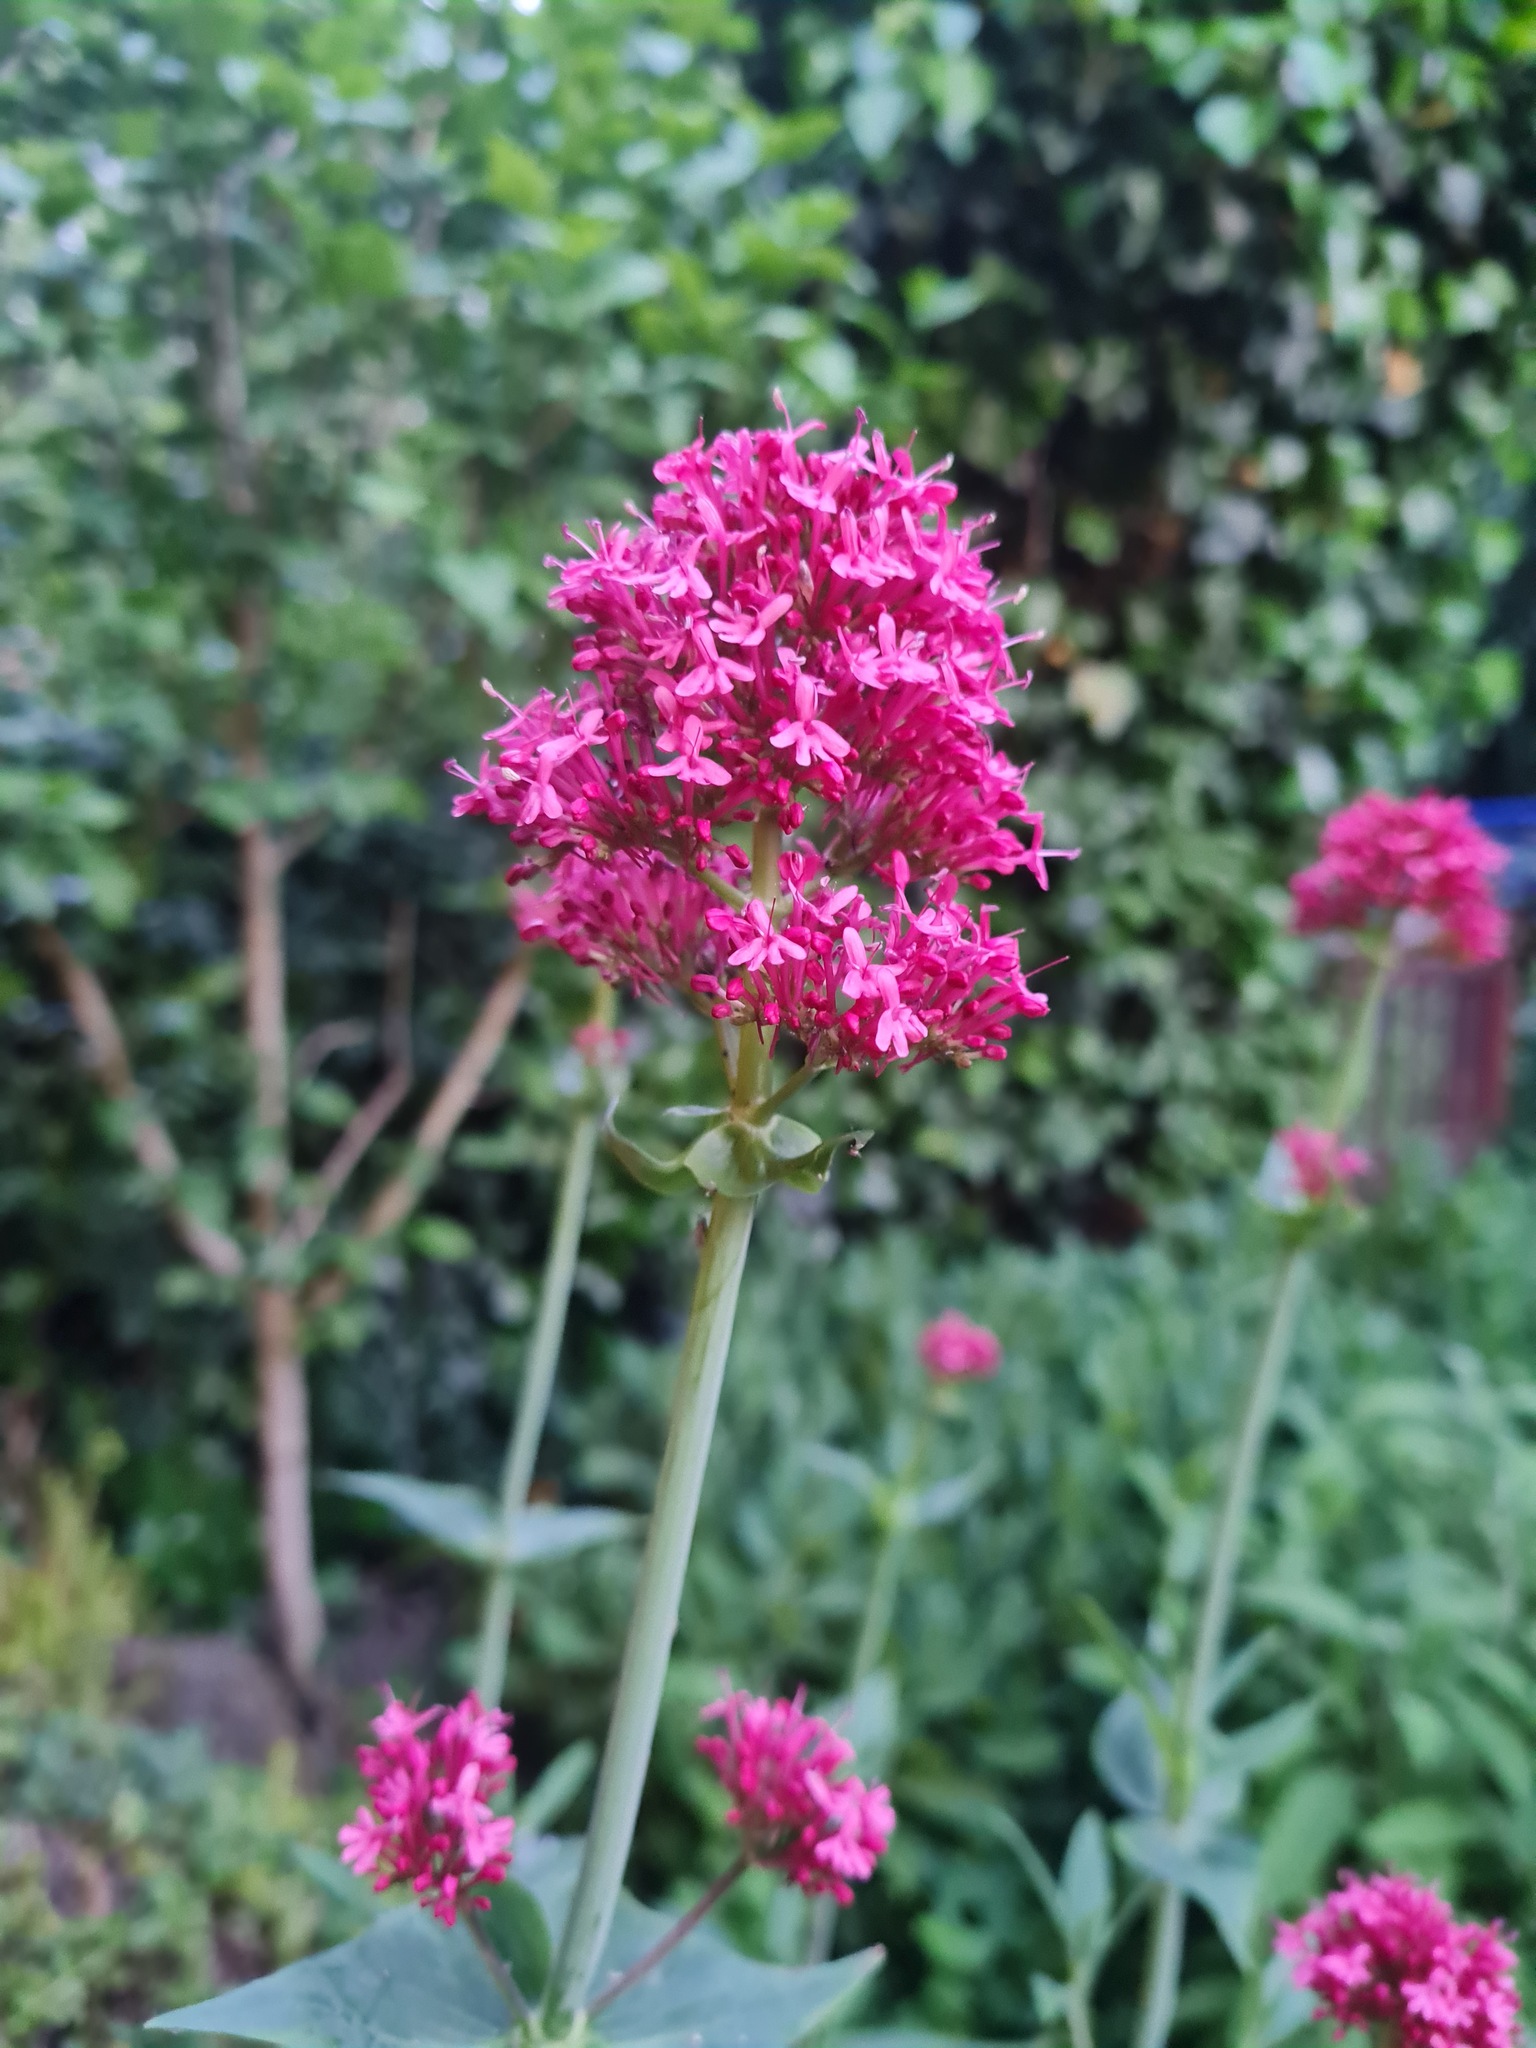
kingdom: Plantae
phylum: Tracheophyta
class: Magnoliopsida
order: Dipsacales
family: Caprifoliaceae
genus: Centranthus
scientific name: Centranthus ruber
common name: Red valerian
